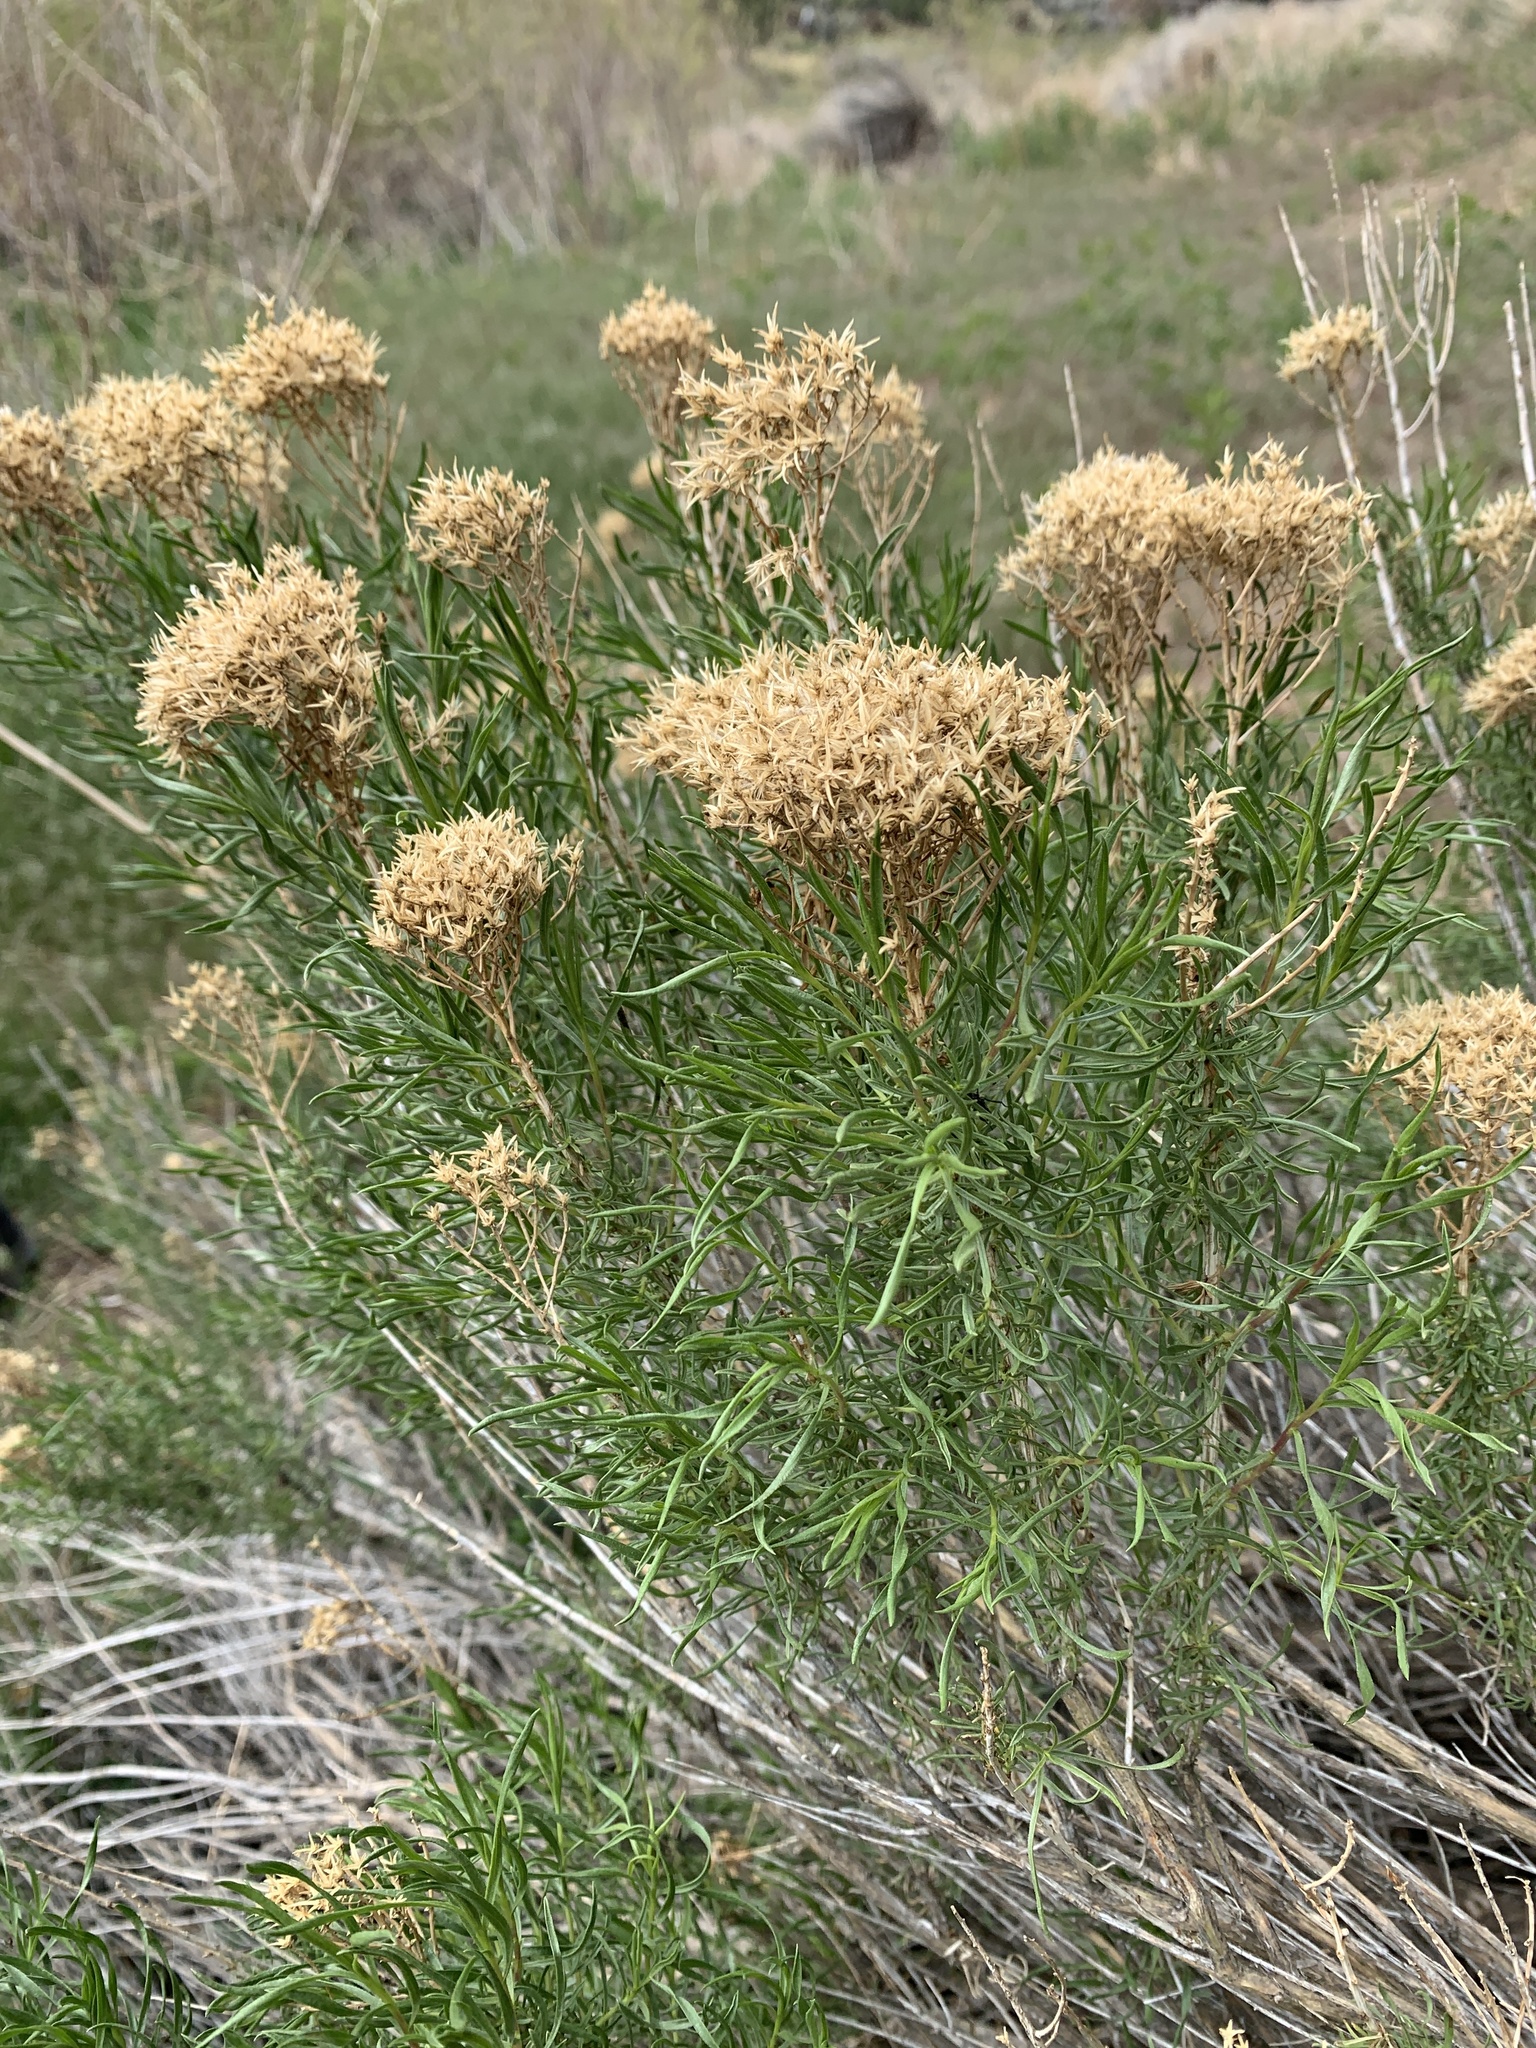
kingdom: Plantae
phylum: Tracheophyta
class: Magnoliopsida
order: Asterales
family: Asteraceae
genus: Chrysothamnus
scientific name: Chrysothamnus viscidiflorus
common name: Yellow rabbitbrush
